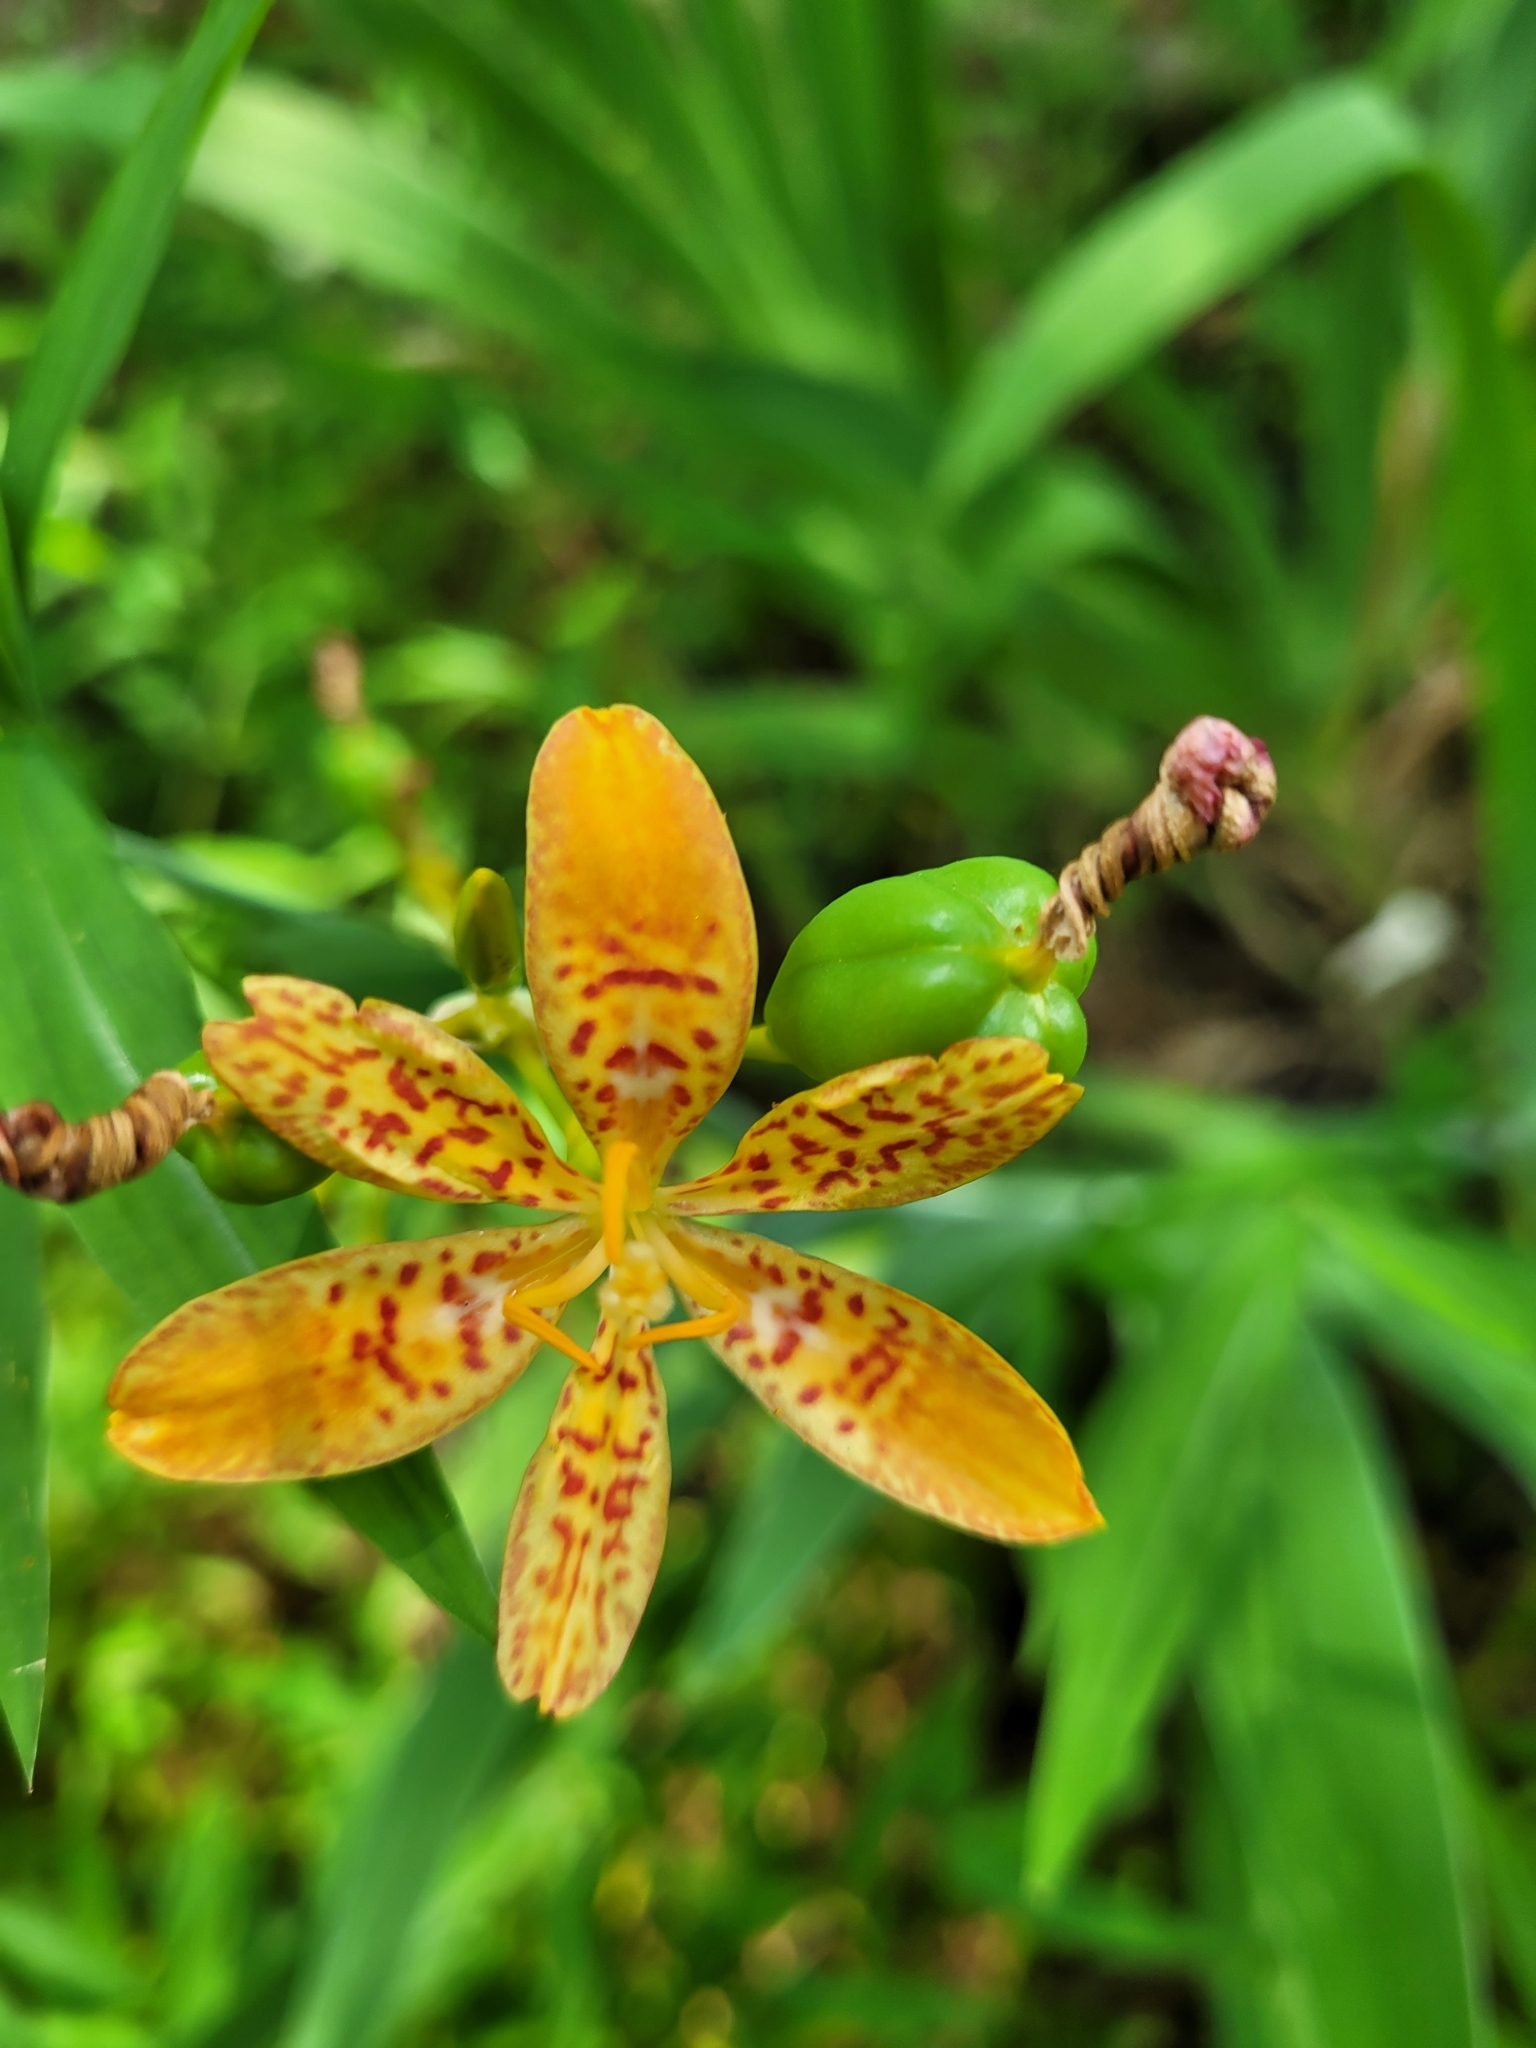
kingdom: Plantae
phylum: Tracheophyta
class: Liliopsida
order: Asparagales
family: Iridaceae
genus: Iris
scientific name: Iris domestica
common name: Belamcanda
